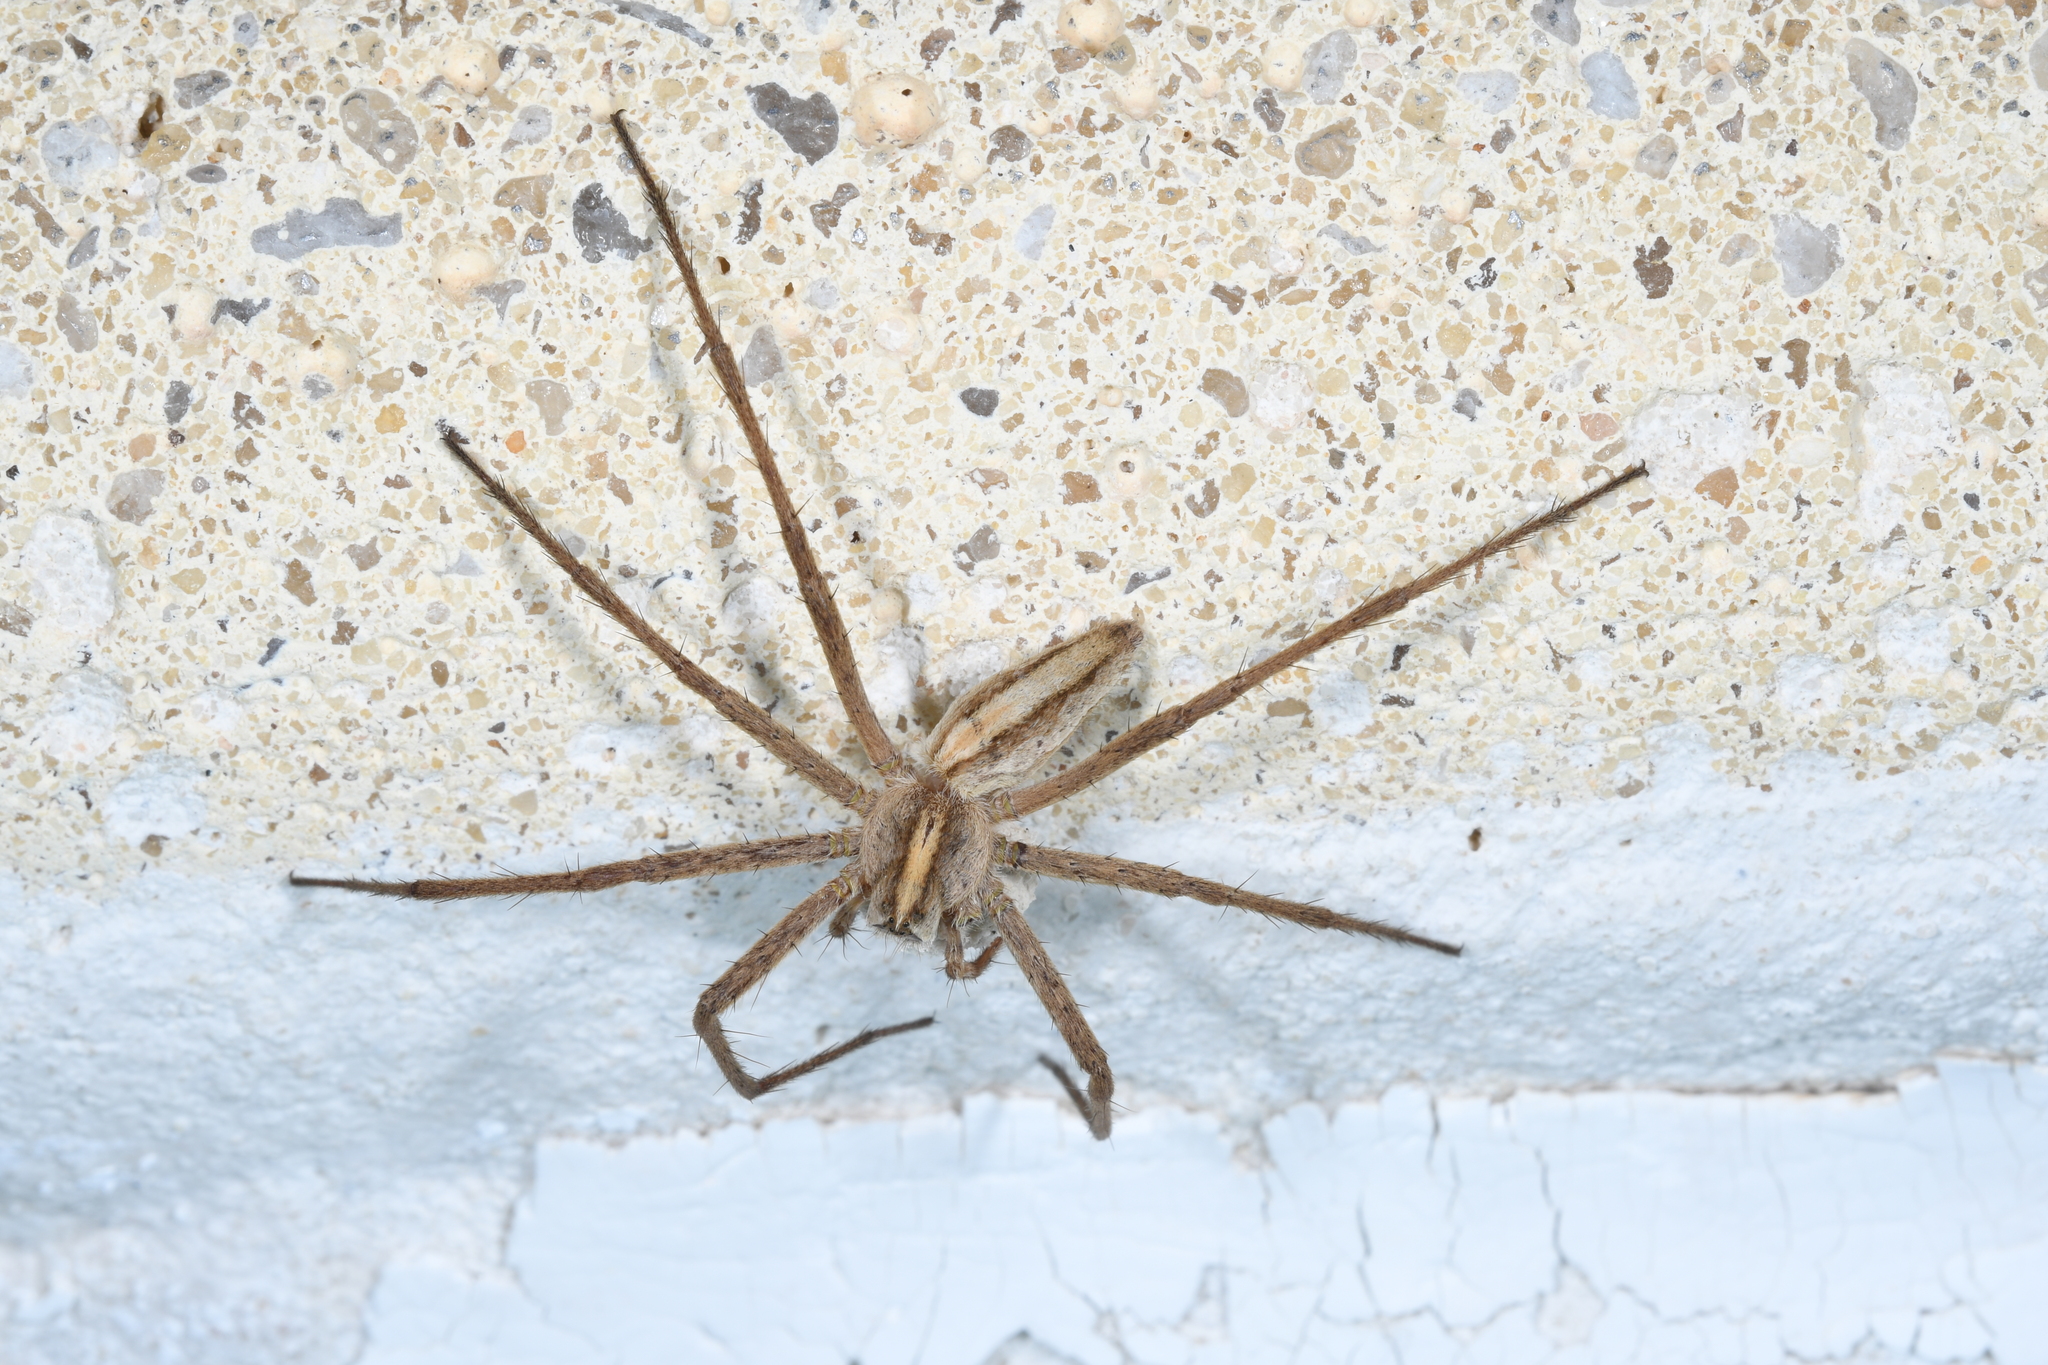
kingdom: Animalia
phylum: Arthropoda
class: Arachnida
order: Araneae
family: Pisauridae
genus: Pisaura
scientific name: Pisaura mirabilis
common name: Tent spider
